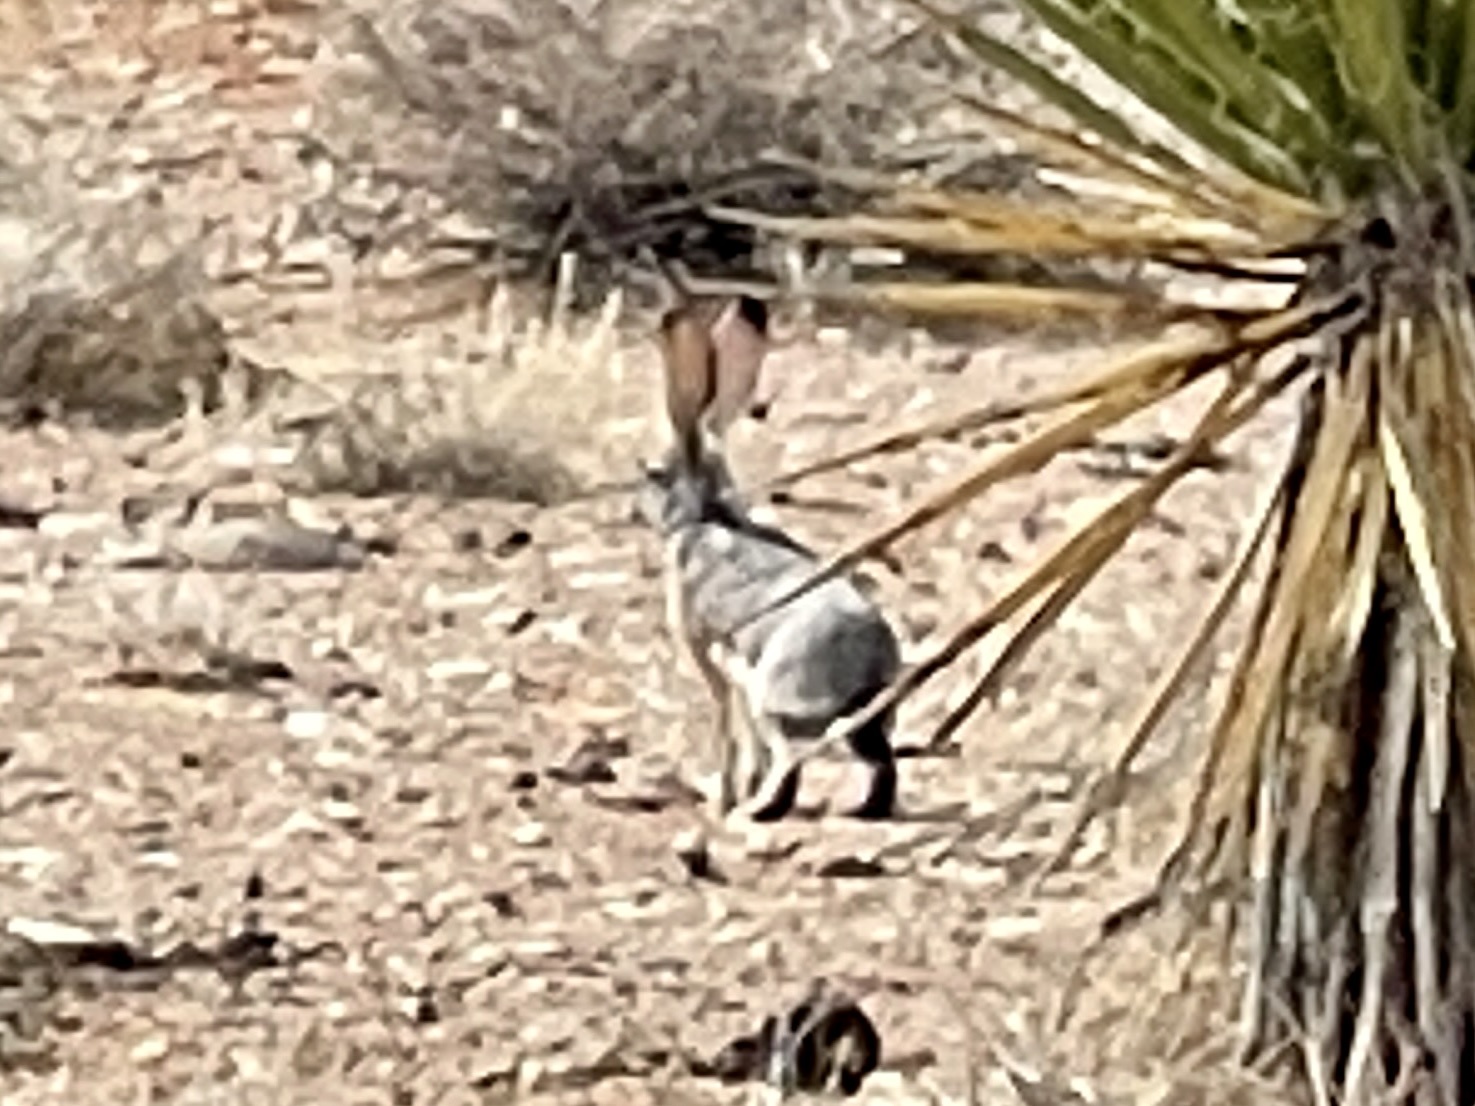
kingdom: Animalia
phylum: Chordata
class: Mammalia
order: Lagomorpha
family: Leporidae
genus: Lepus
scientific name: Lepus californicus
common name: Black-tailed jackrabbit
